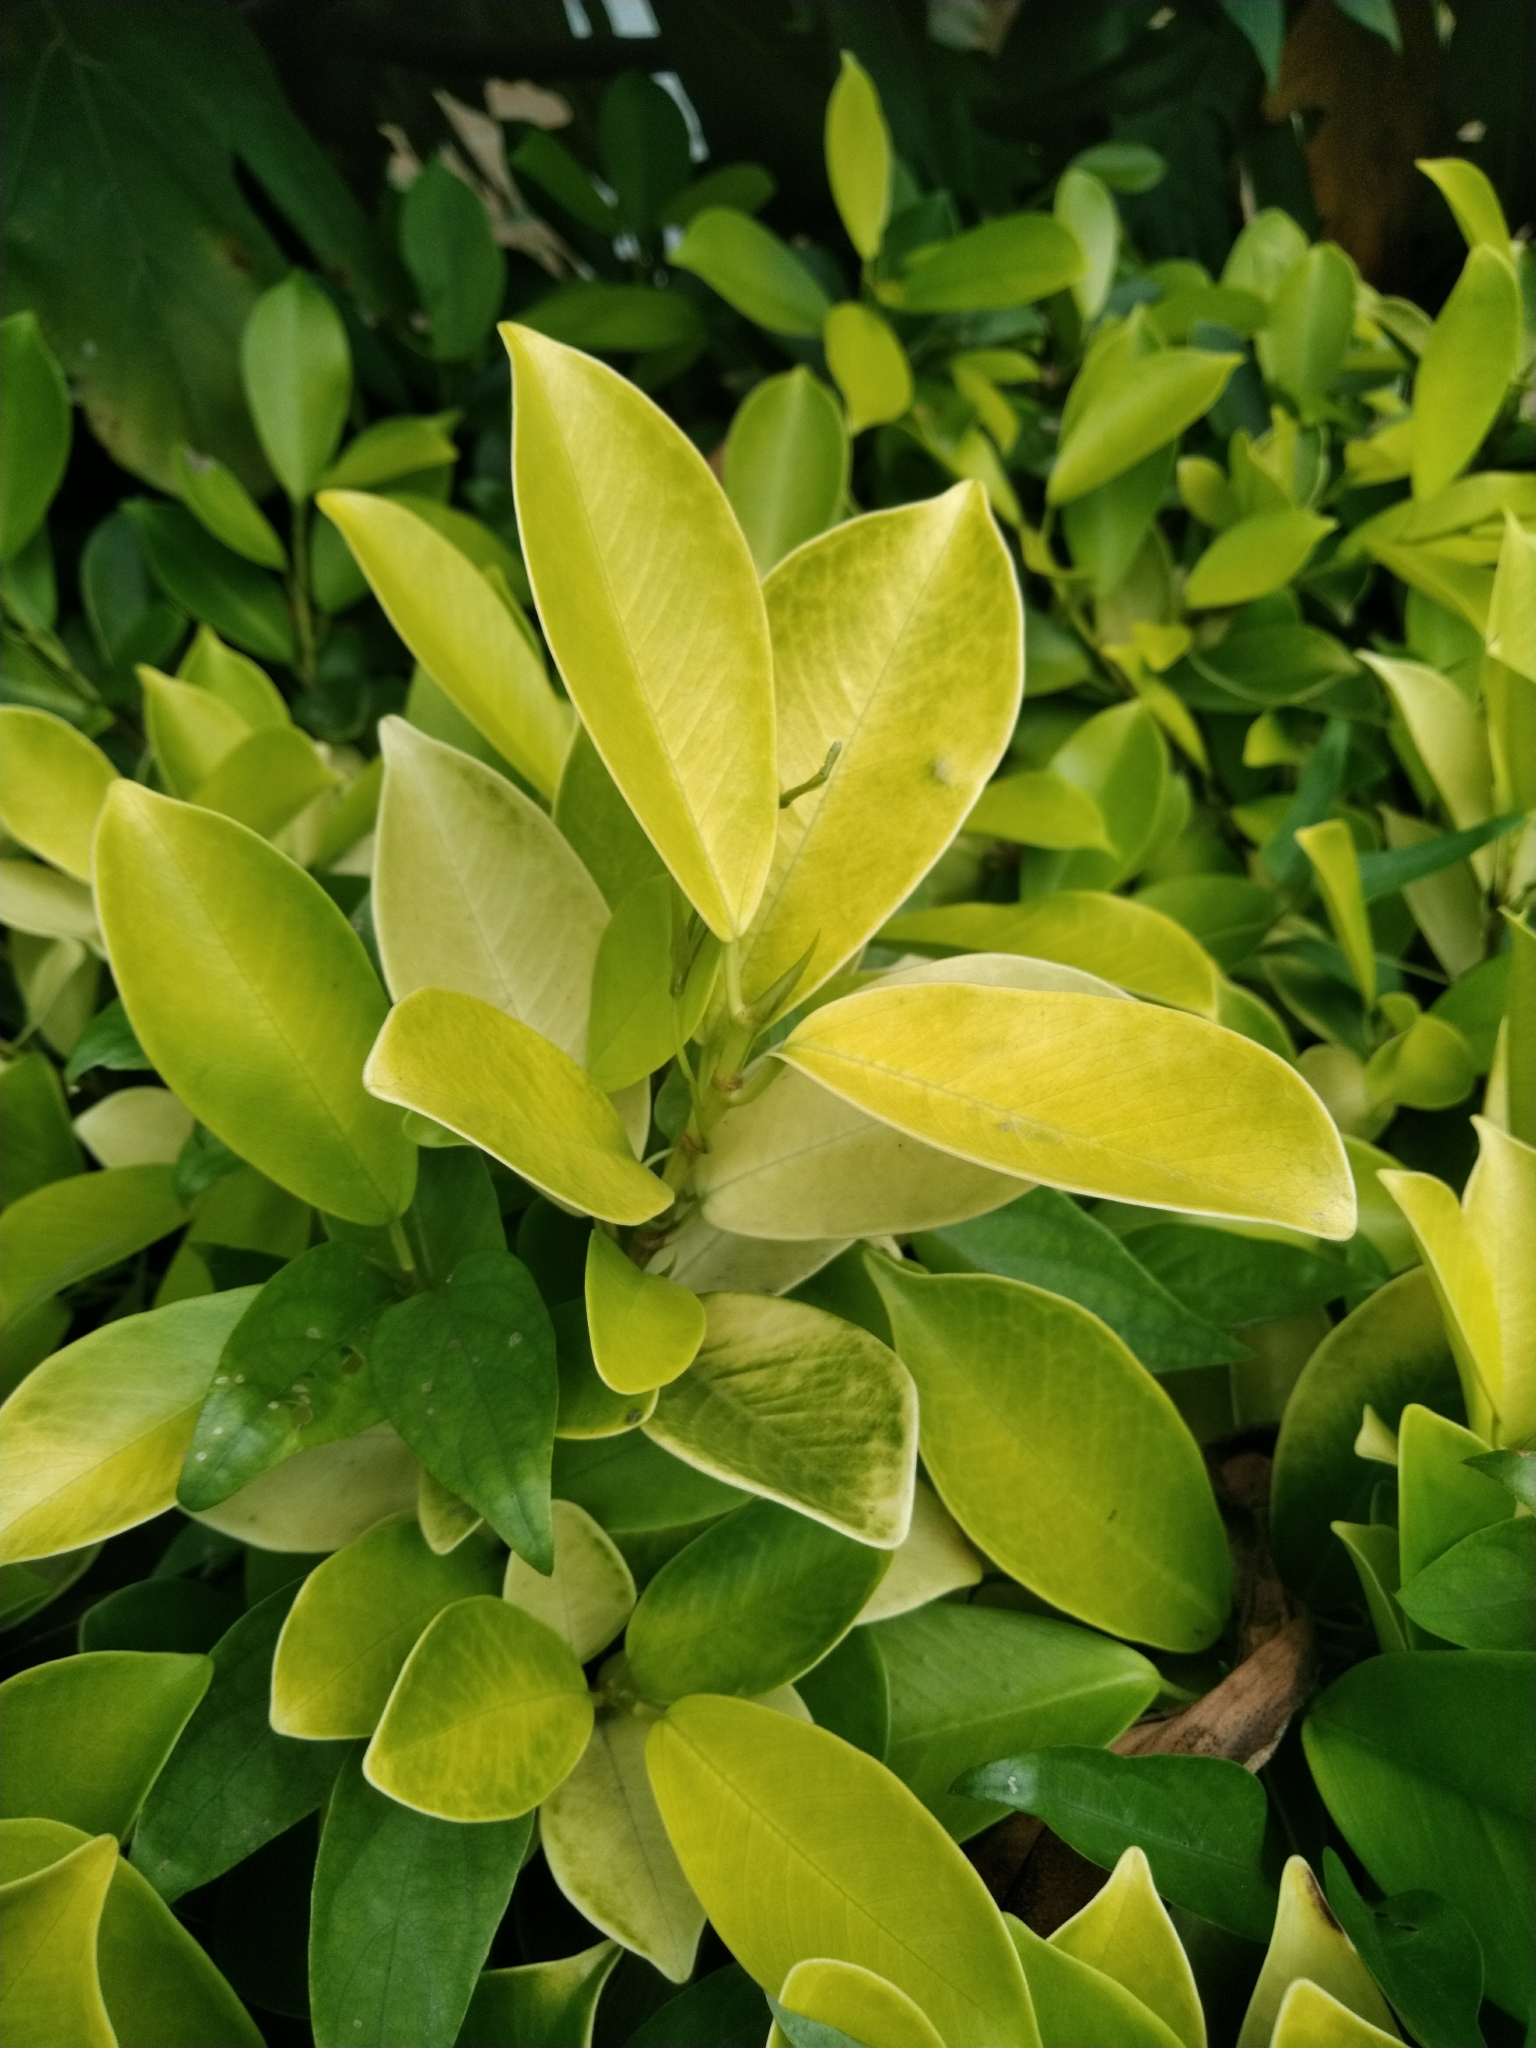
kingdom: Plantae
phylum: Tracheophyta
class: Magnoliopsida
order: Rosales
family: Moraceae
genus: Ficus
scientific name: Ficus microcarpa
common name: Chinese banyan
